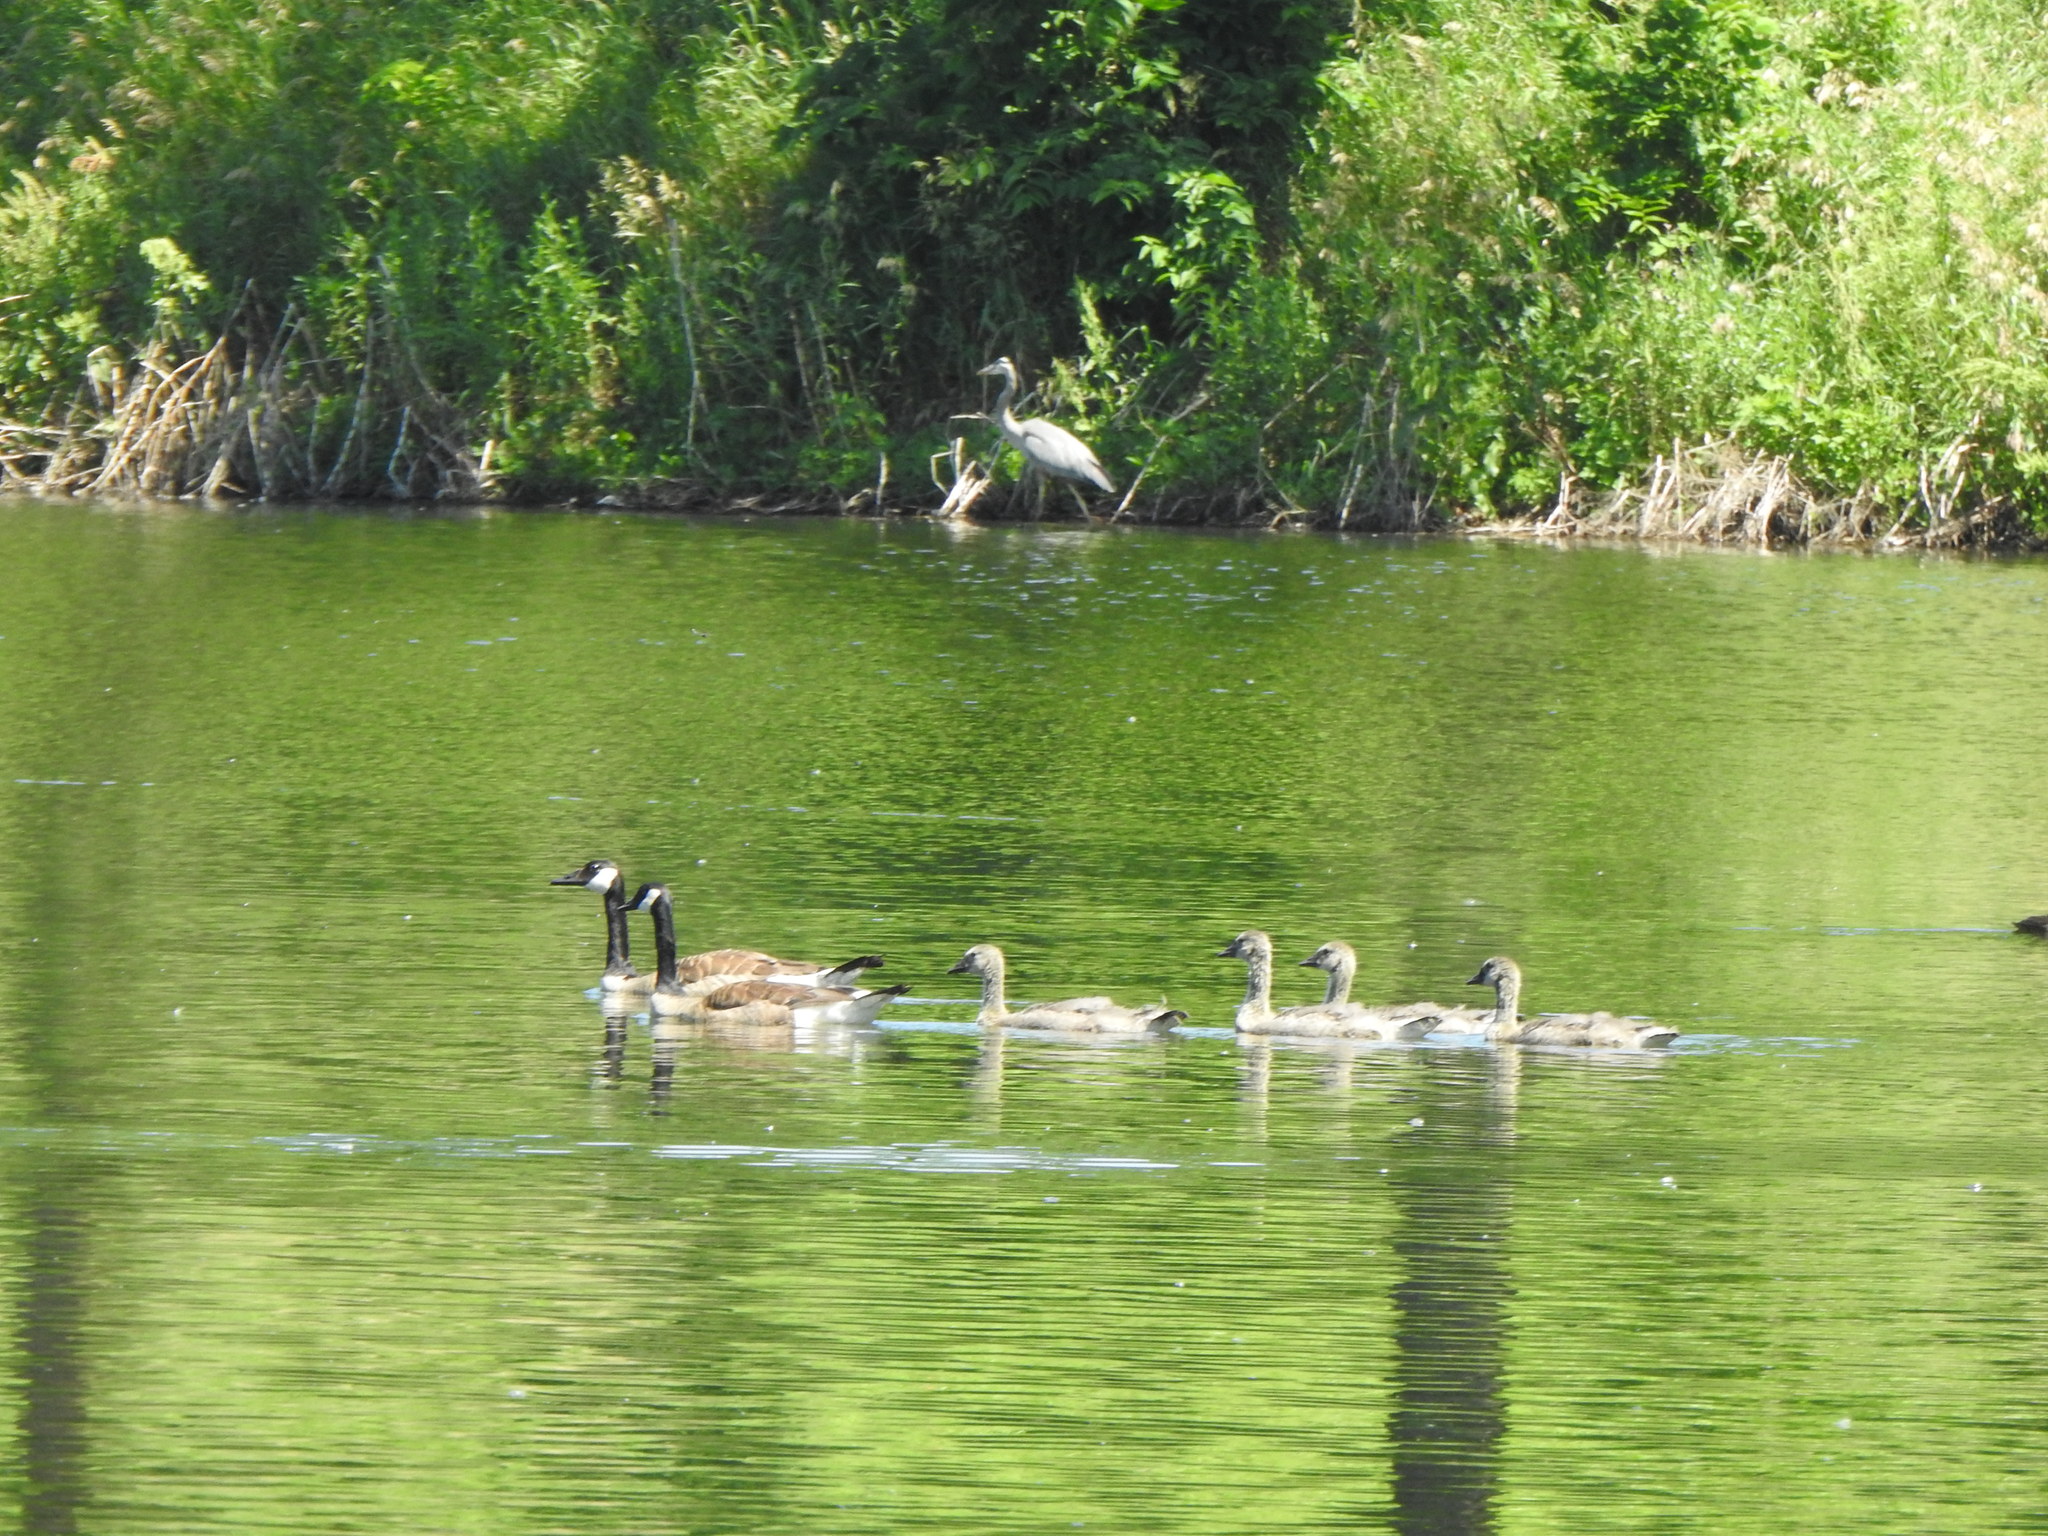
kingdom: Animalia
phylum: Chordata
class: Aves
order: Anseriformes
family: Anatidae
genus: Branta
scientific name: Branta canadensis
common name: Canada goose
